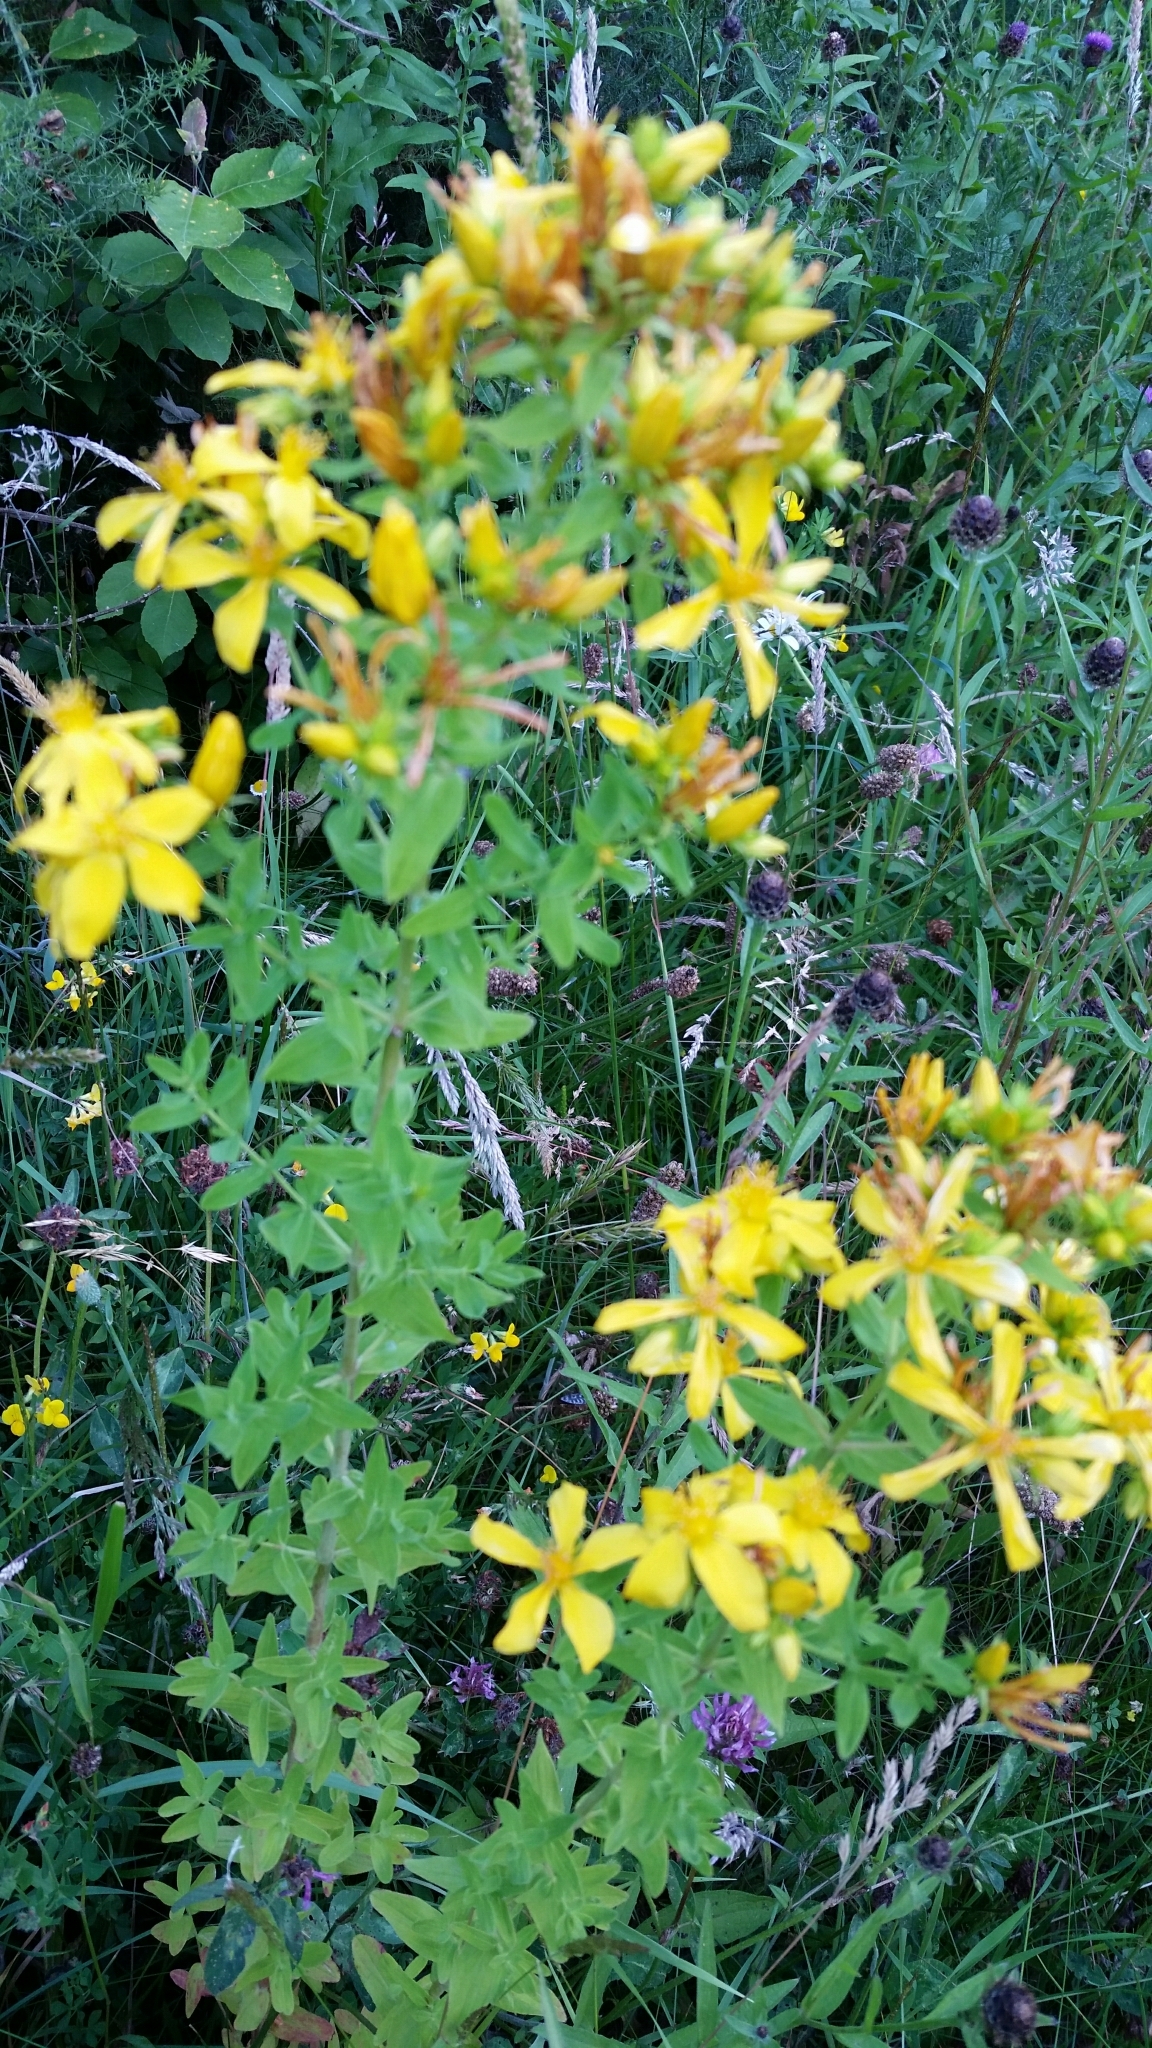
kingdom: Plantae
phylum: Tracheophyta
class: Magnoliopsida
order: Malpighiales
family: Hypericaceae
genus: Hypericum
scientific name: Hypericum perforatum
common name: Common st. johnswort
